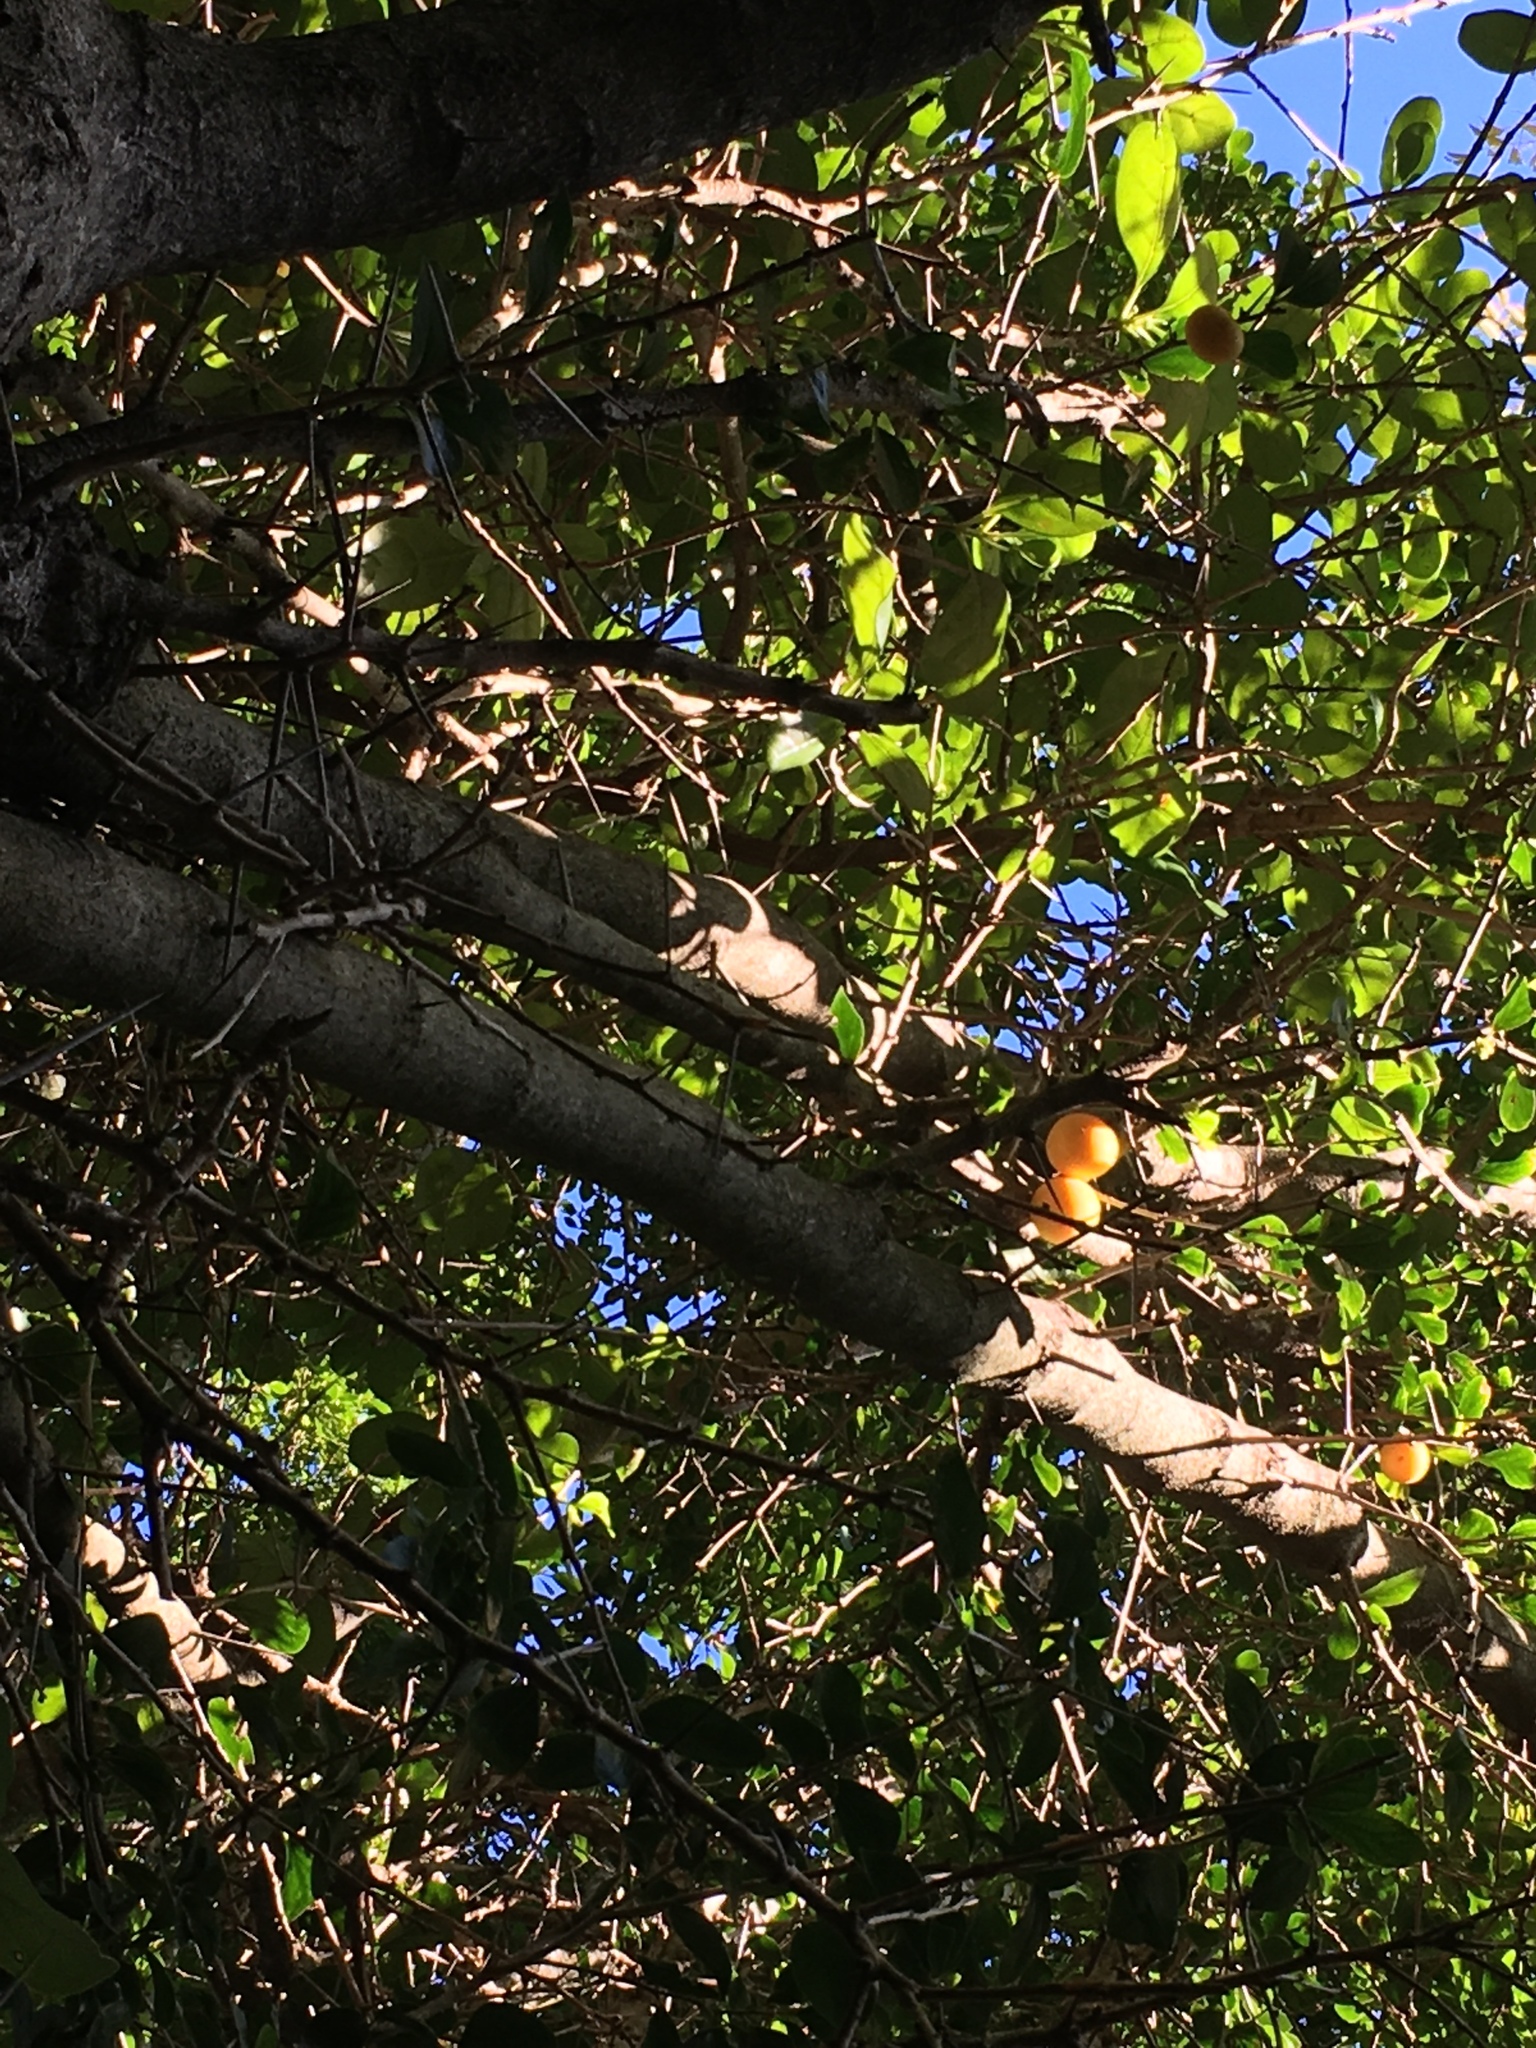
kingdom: Plantae
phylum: Tracheophyta
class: Magnoliopsida
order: Malpighiales
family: Salicaceae
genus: Dovyalis
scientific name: Dovyalis caffra
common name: Kei-apple
